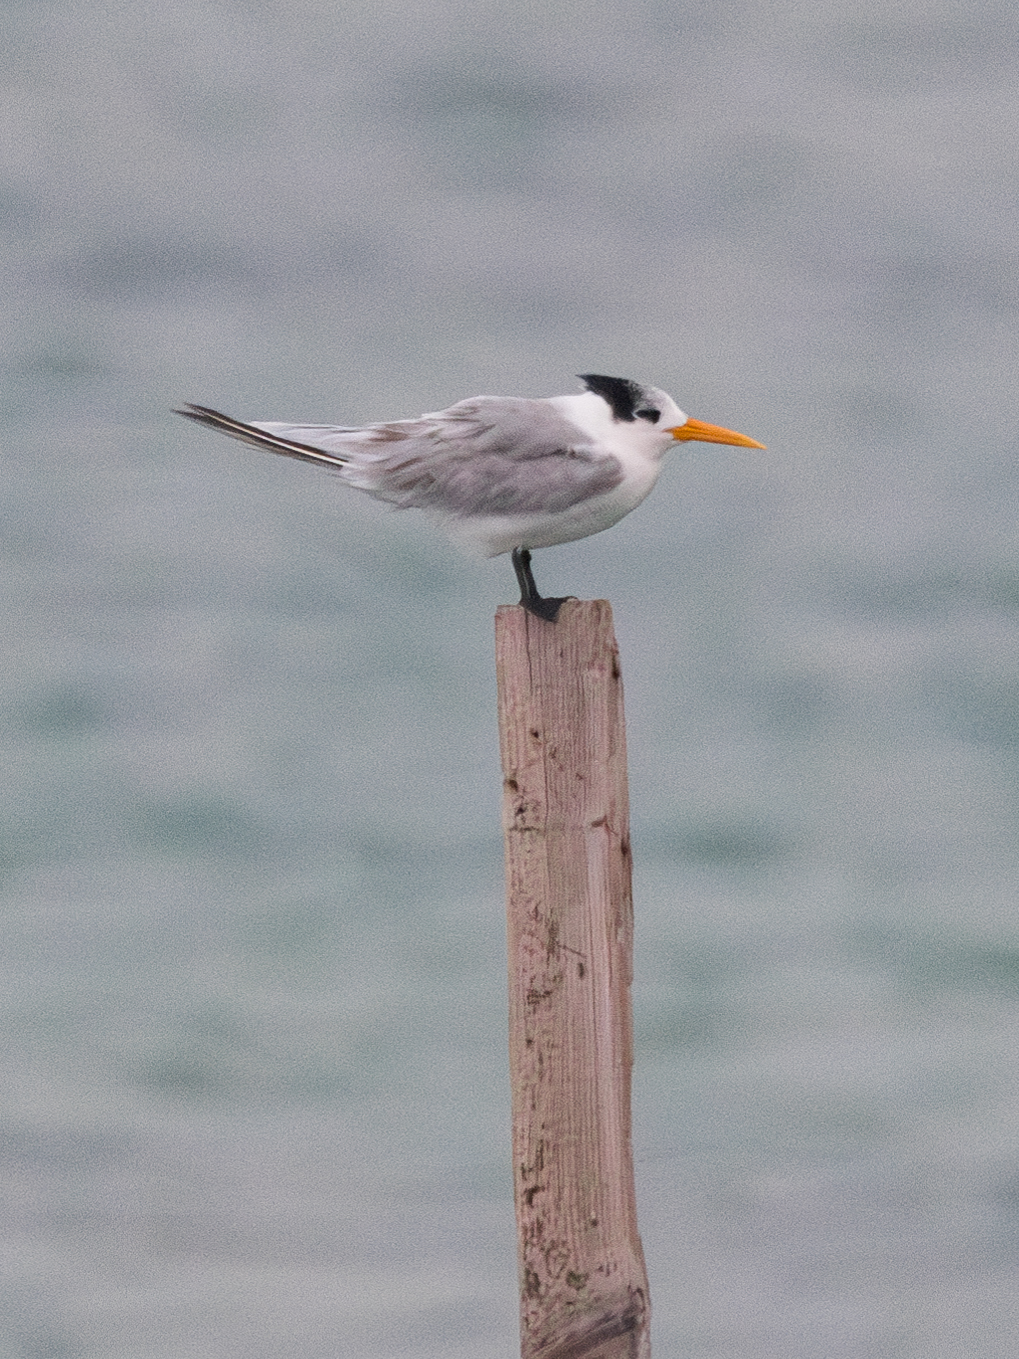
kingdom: Animalia
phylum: Chordata
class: Aves
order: Charadriiformes
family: Laridae
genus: Thalasseus
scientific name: Thalasseus bengalensis
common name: Lesser crested tern
